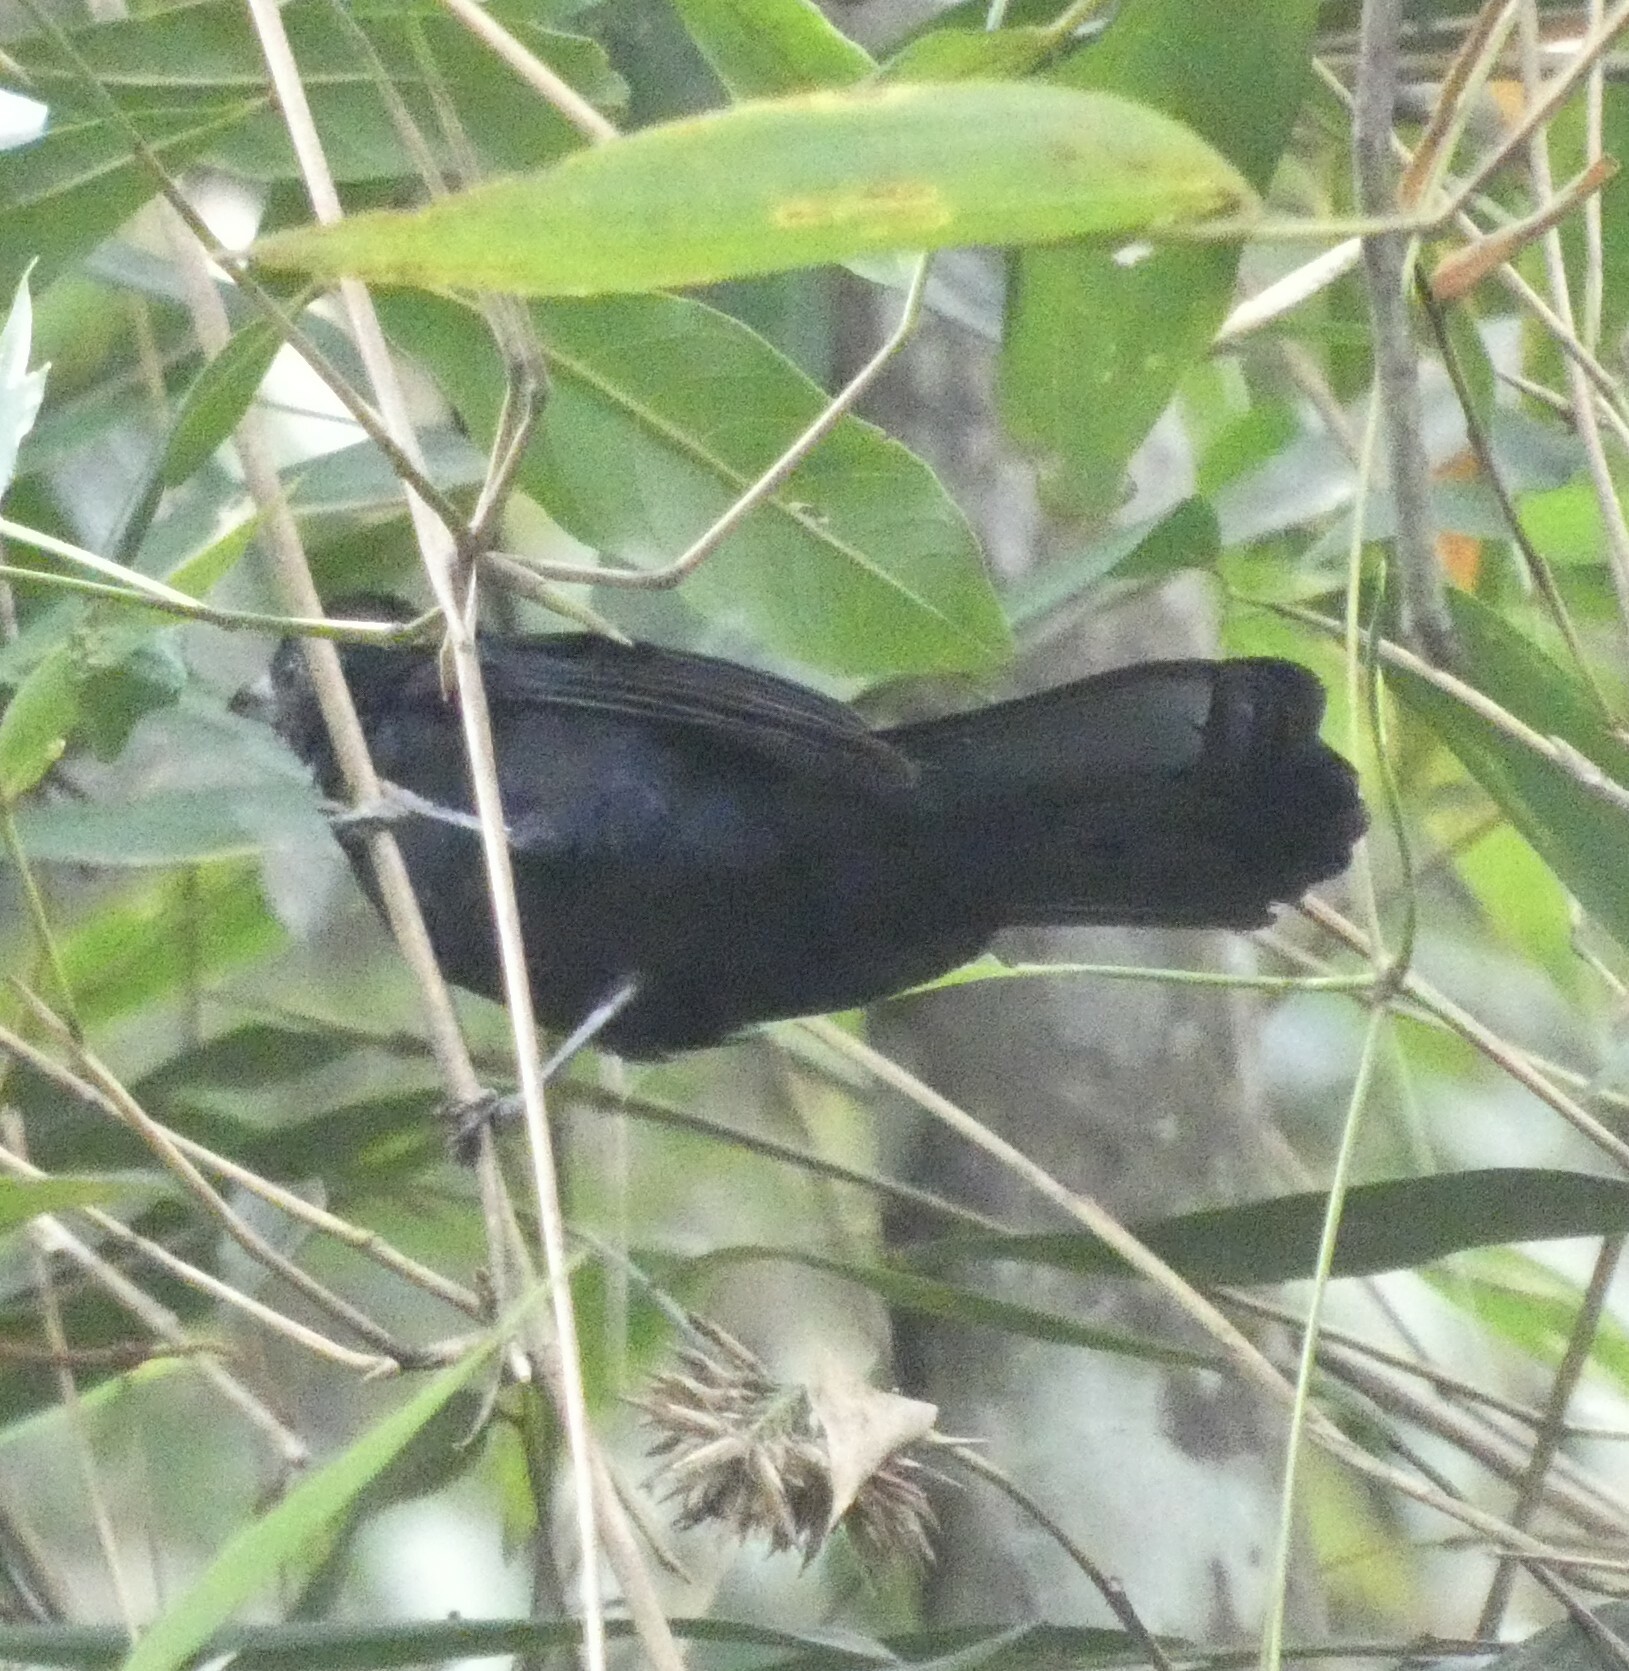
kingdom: Animalia
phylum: Chordata
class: Aves
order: Passeriformes
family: Thraupidae
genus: Tachyphonus
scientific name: Tachyphonus coronatus
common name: Ruby-crowned tanager
